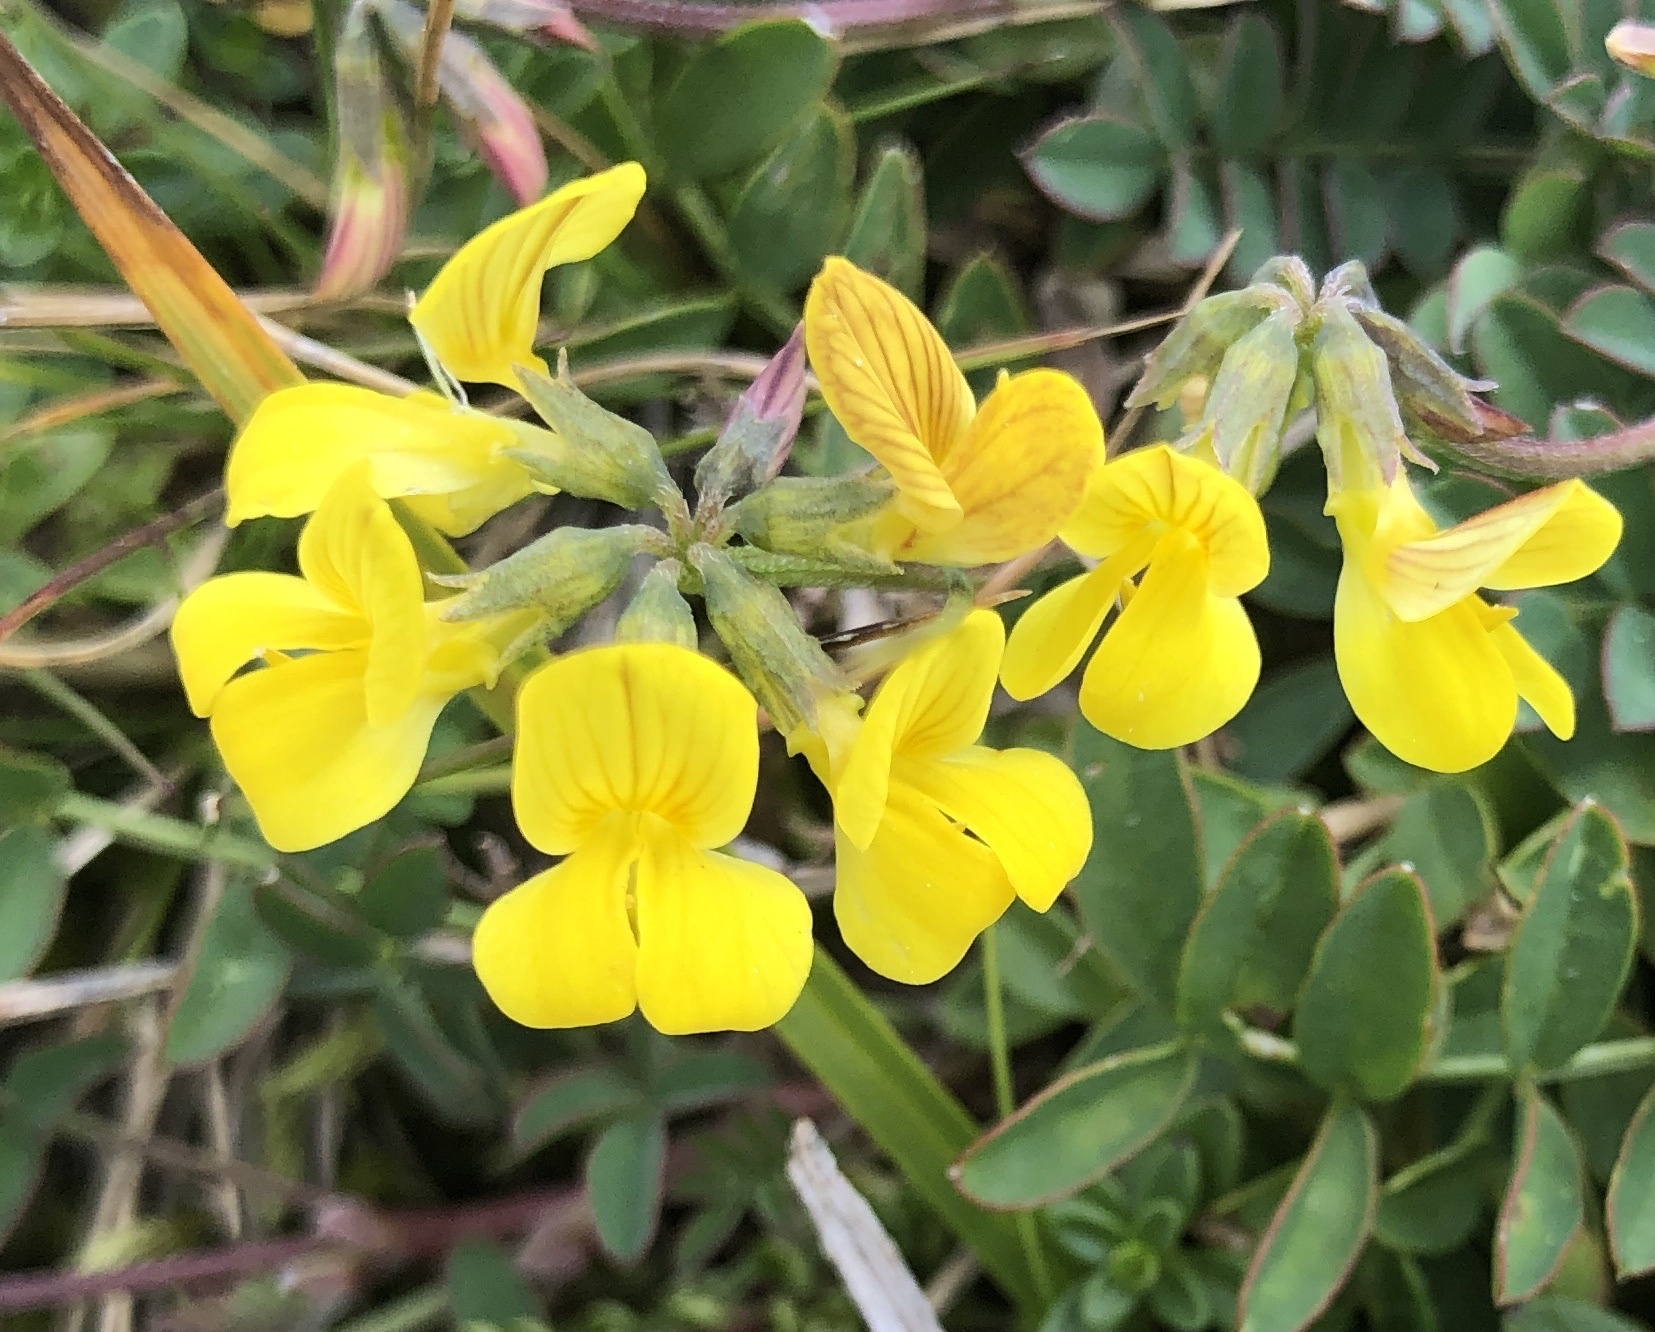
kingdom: Plantae
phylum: Tracheophyta
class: Magnoliopsida
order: Fabales
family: Fabaceae
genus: Hippocrepis
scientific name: Hippocrepis comosa
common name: Horseshoe vetch
